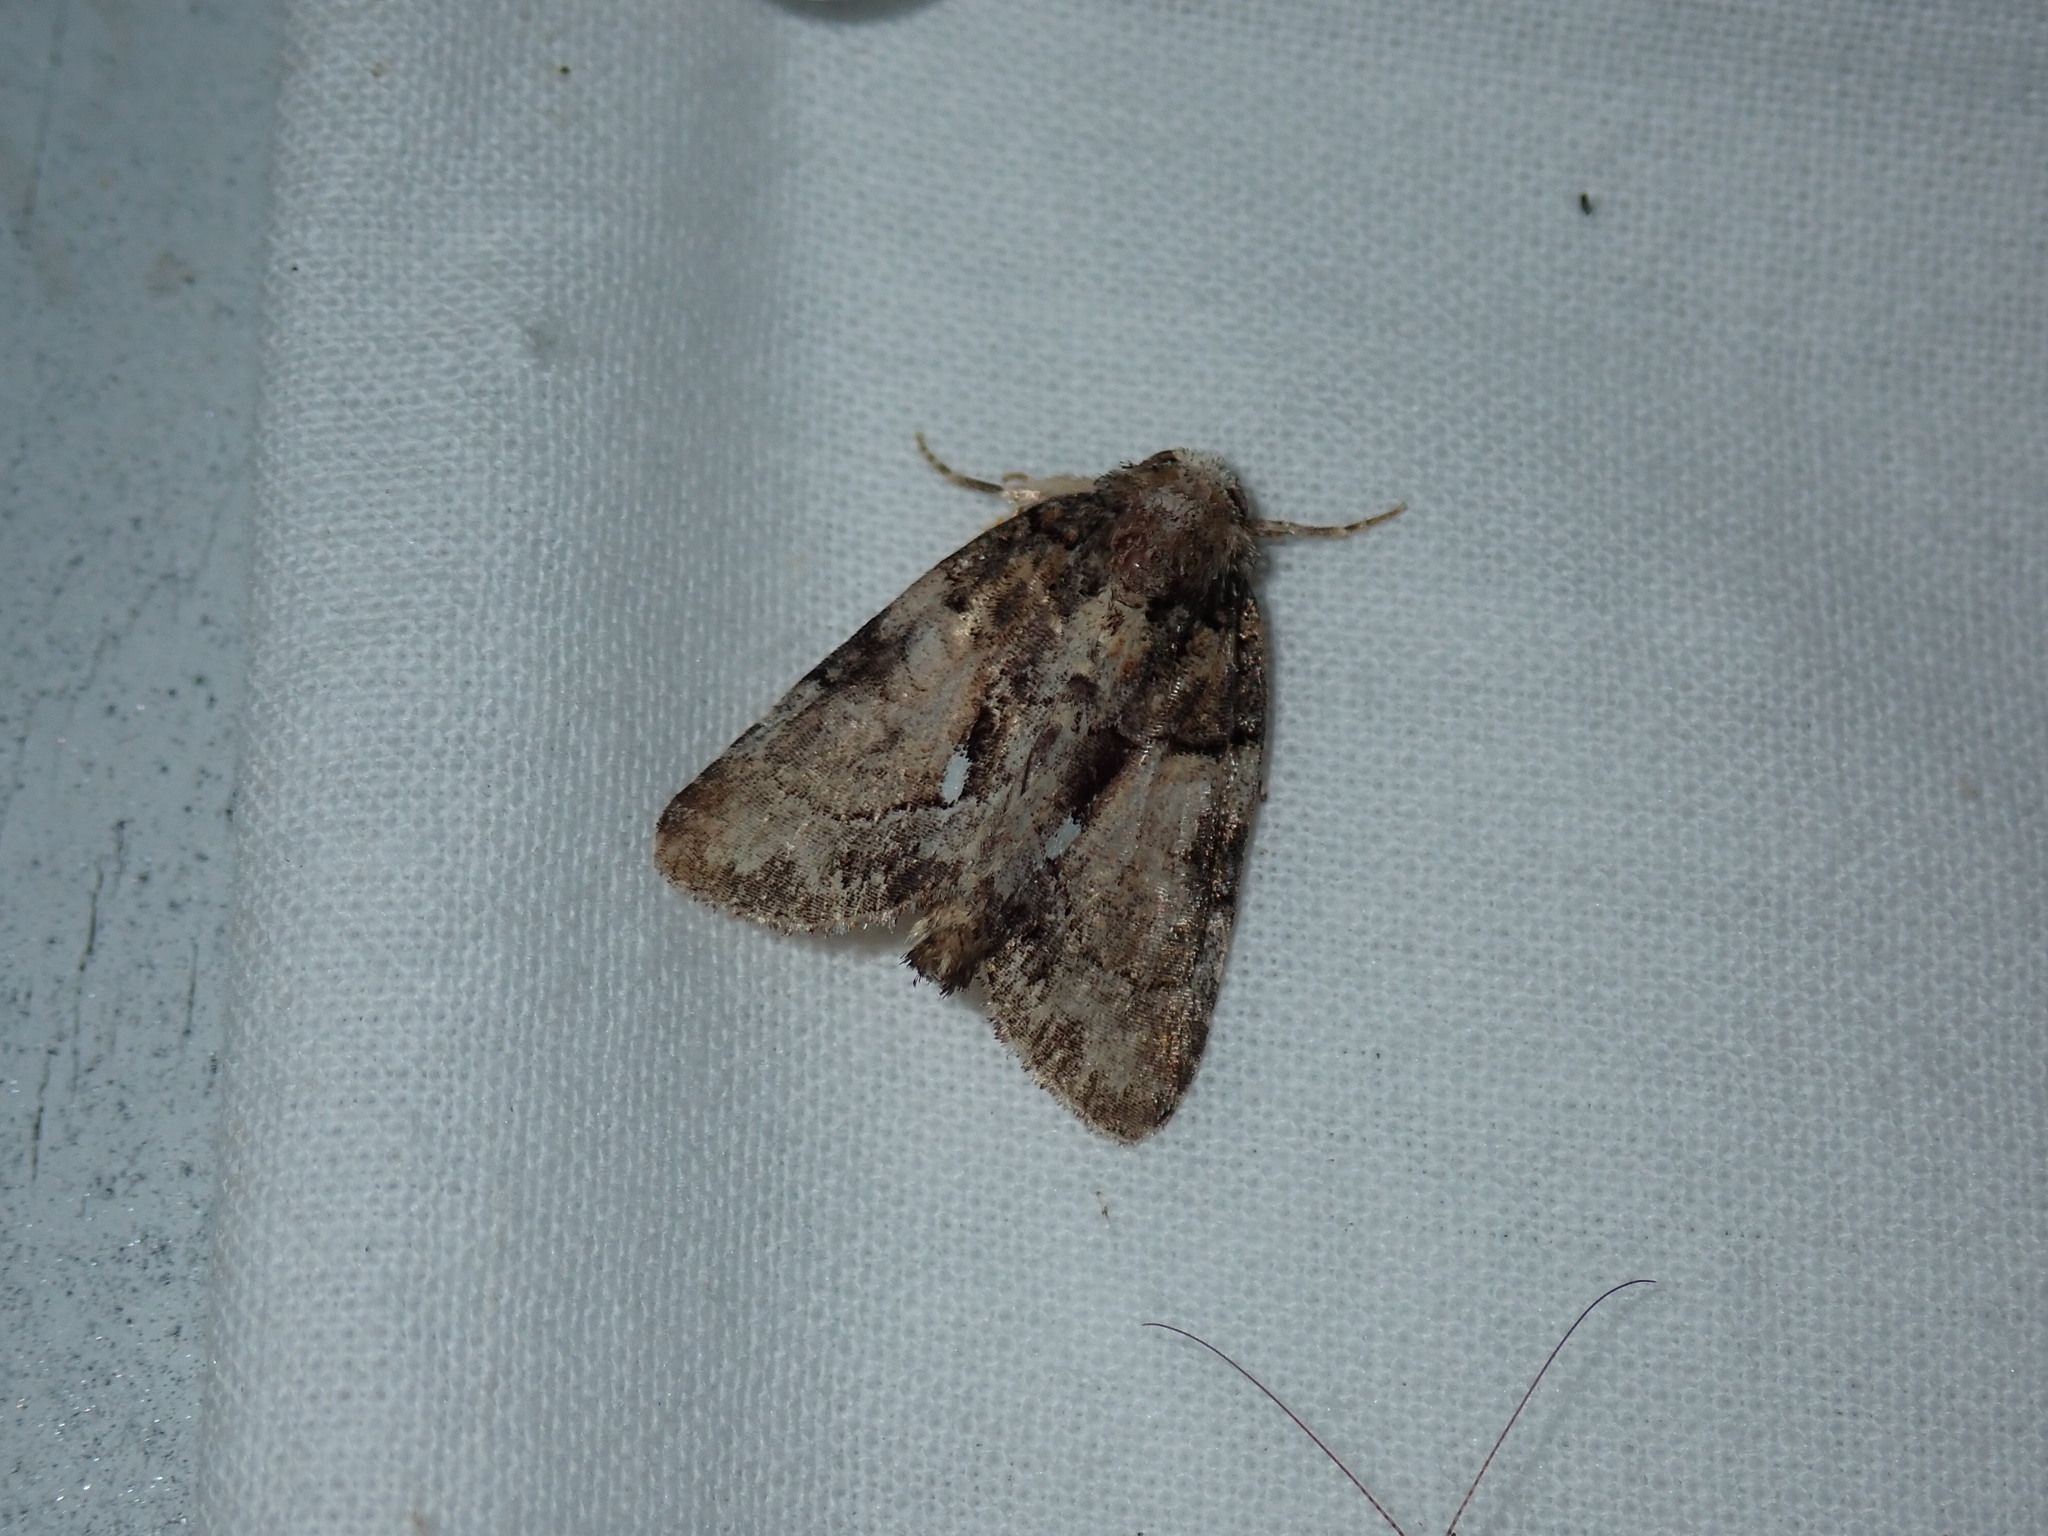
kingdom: Animalia
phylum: Arthropoda
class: Insecta
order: Lepidoptera
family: Noctuidae
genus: Chytonix
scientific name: Chytonix palliatricula
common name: Cloaked marvel
